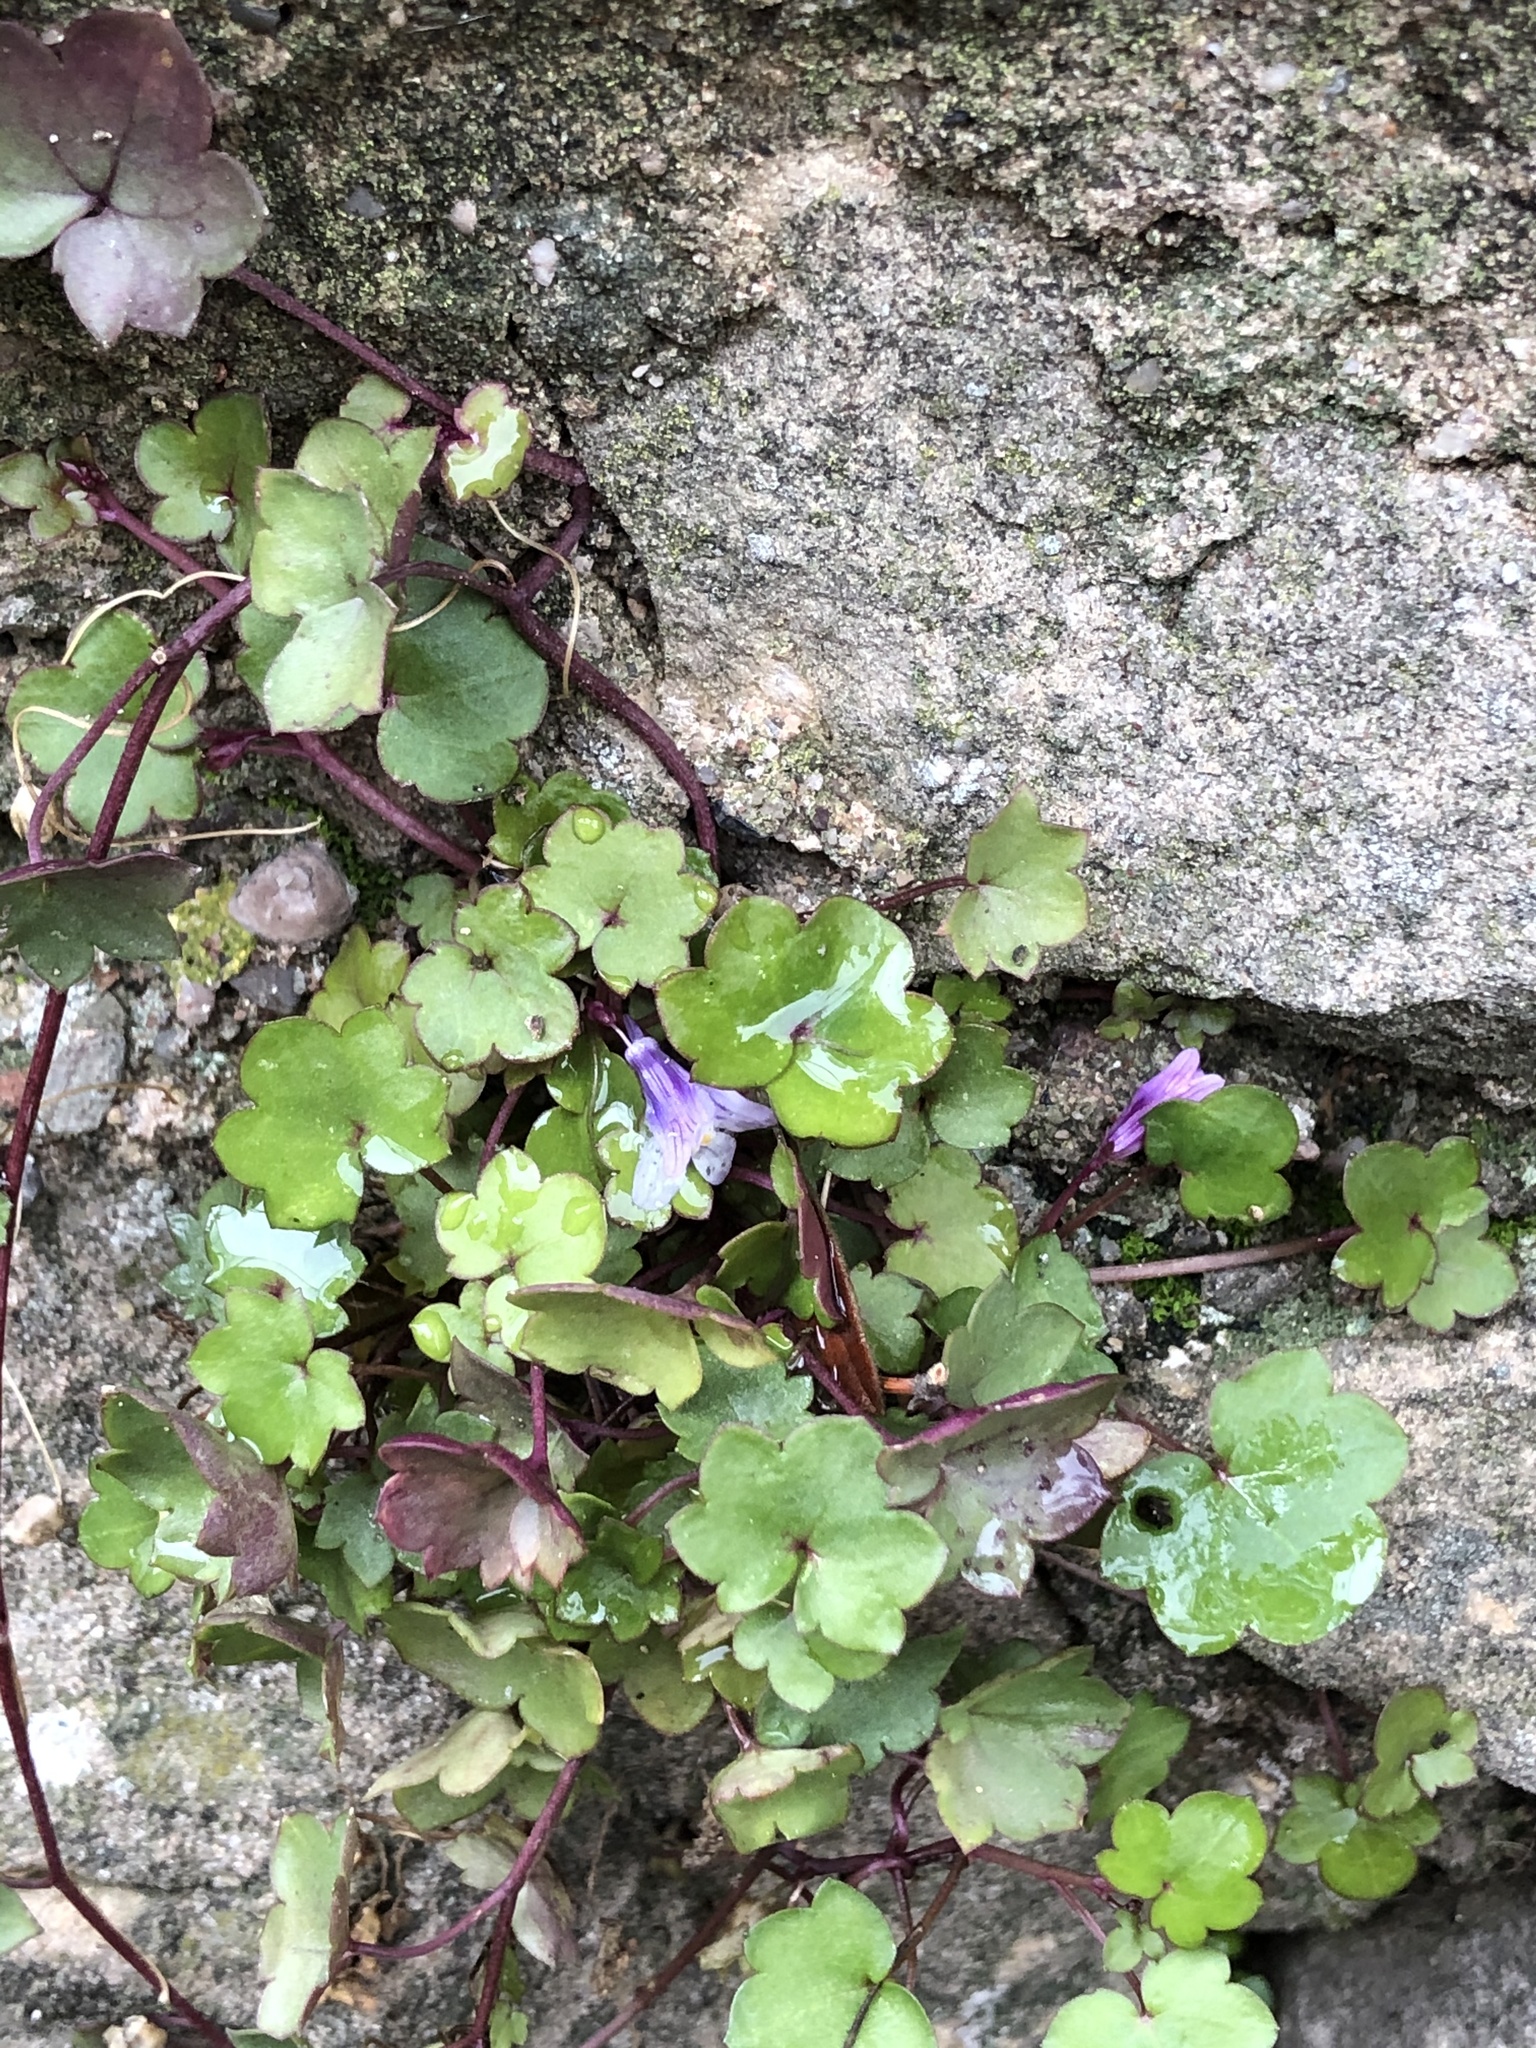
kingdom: Plantae
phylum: Tracheophyta
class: Magnoliopsida
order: Lamiales
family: Plantaginaceae
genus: Cymbalaria
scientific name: Cymbalaria muralis
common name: Ivy-leaved toadflax
